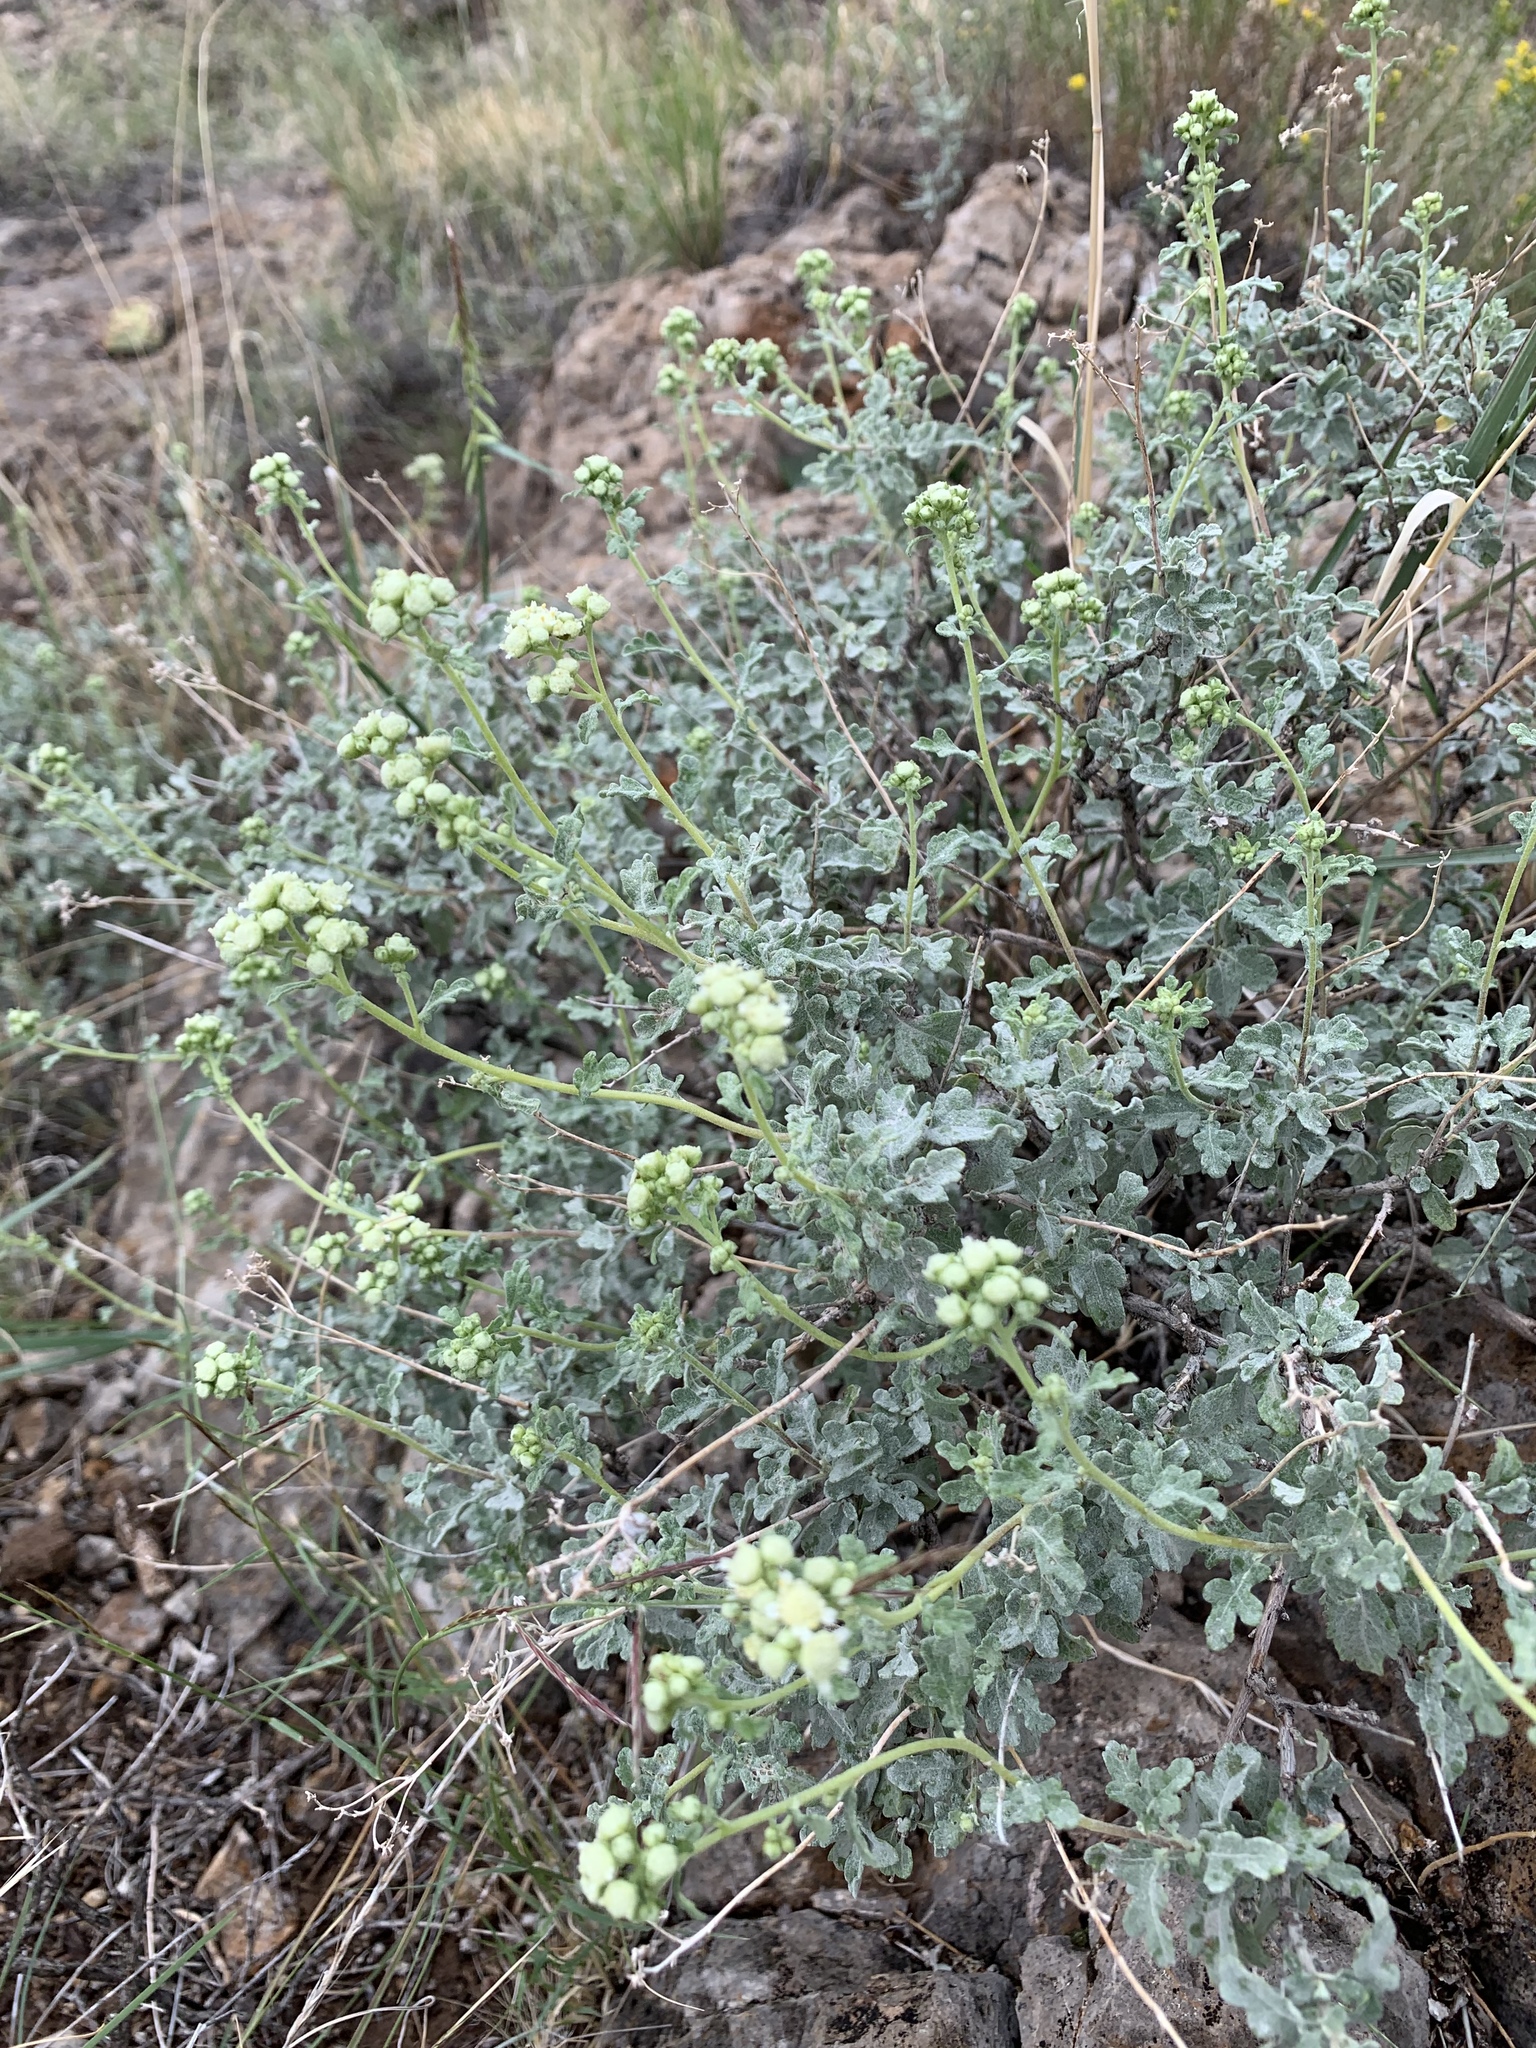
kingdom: Plantae
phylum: Tracheophyta
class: Magnoliopsida
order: Asterales
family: Asteraceae
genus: Parthenium
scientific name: Parthenium incanum
